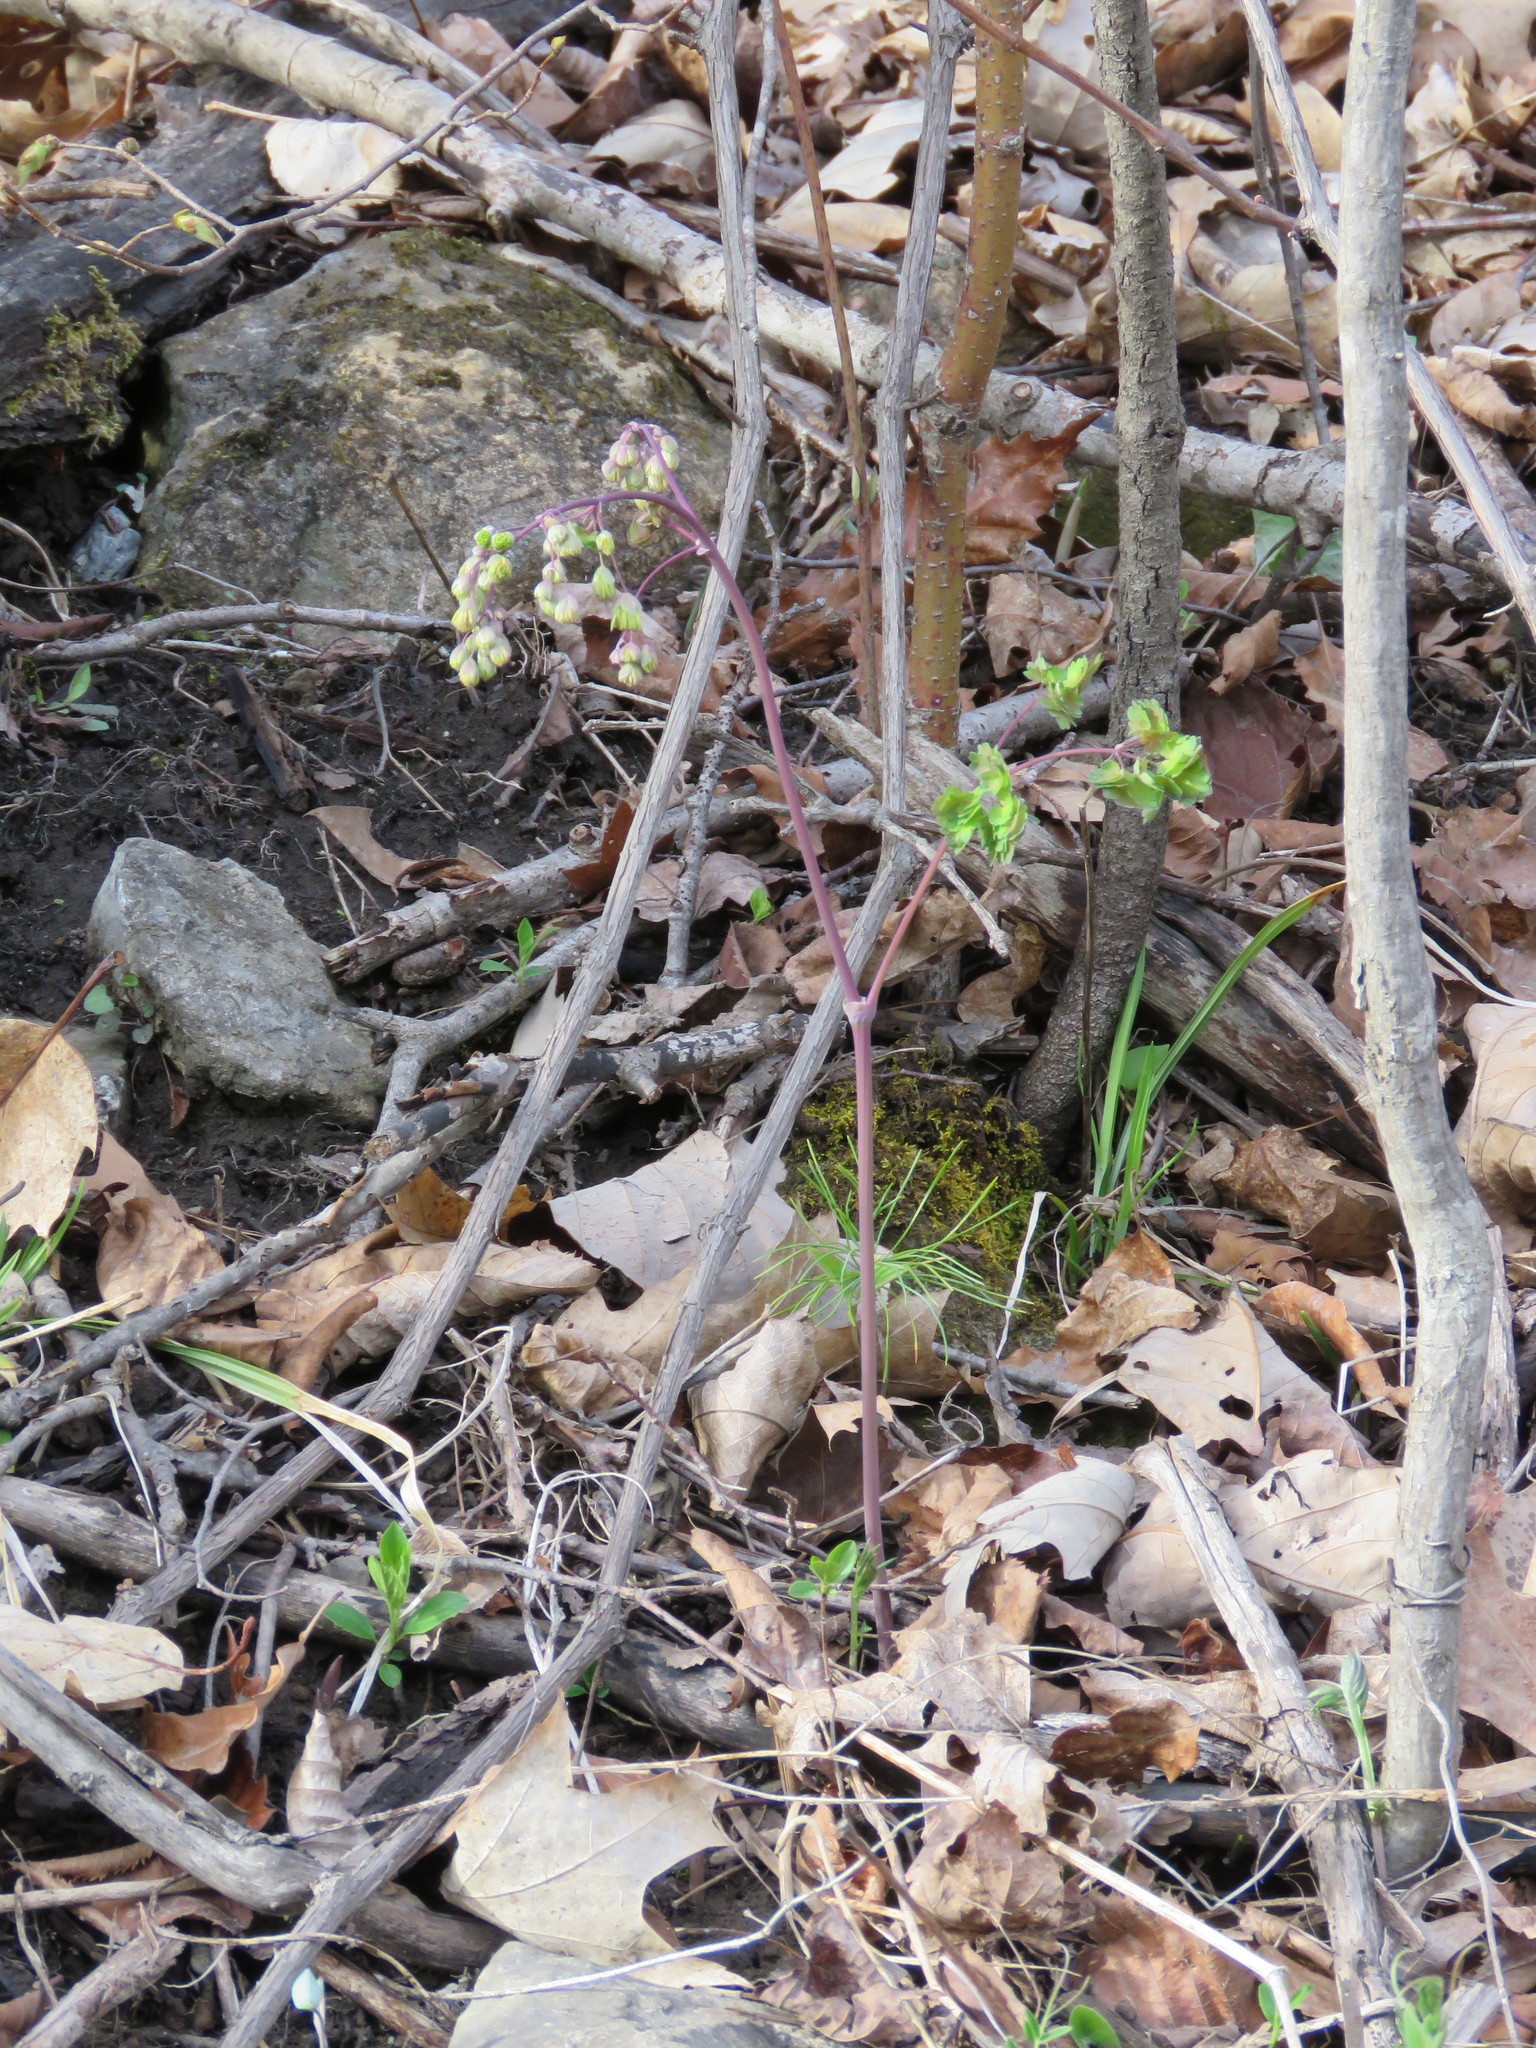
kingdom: Plantae
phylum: Tracheophyta
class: Magnoliopsida
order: Ranunculales
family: Ranunculaceae
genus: Thalictrum
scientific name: Thalictrum dioicum
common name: Early meadow-rue
